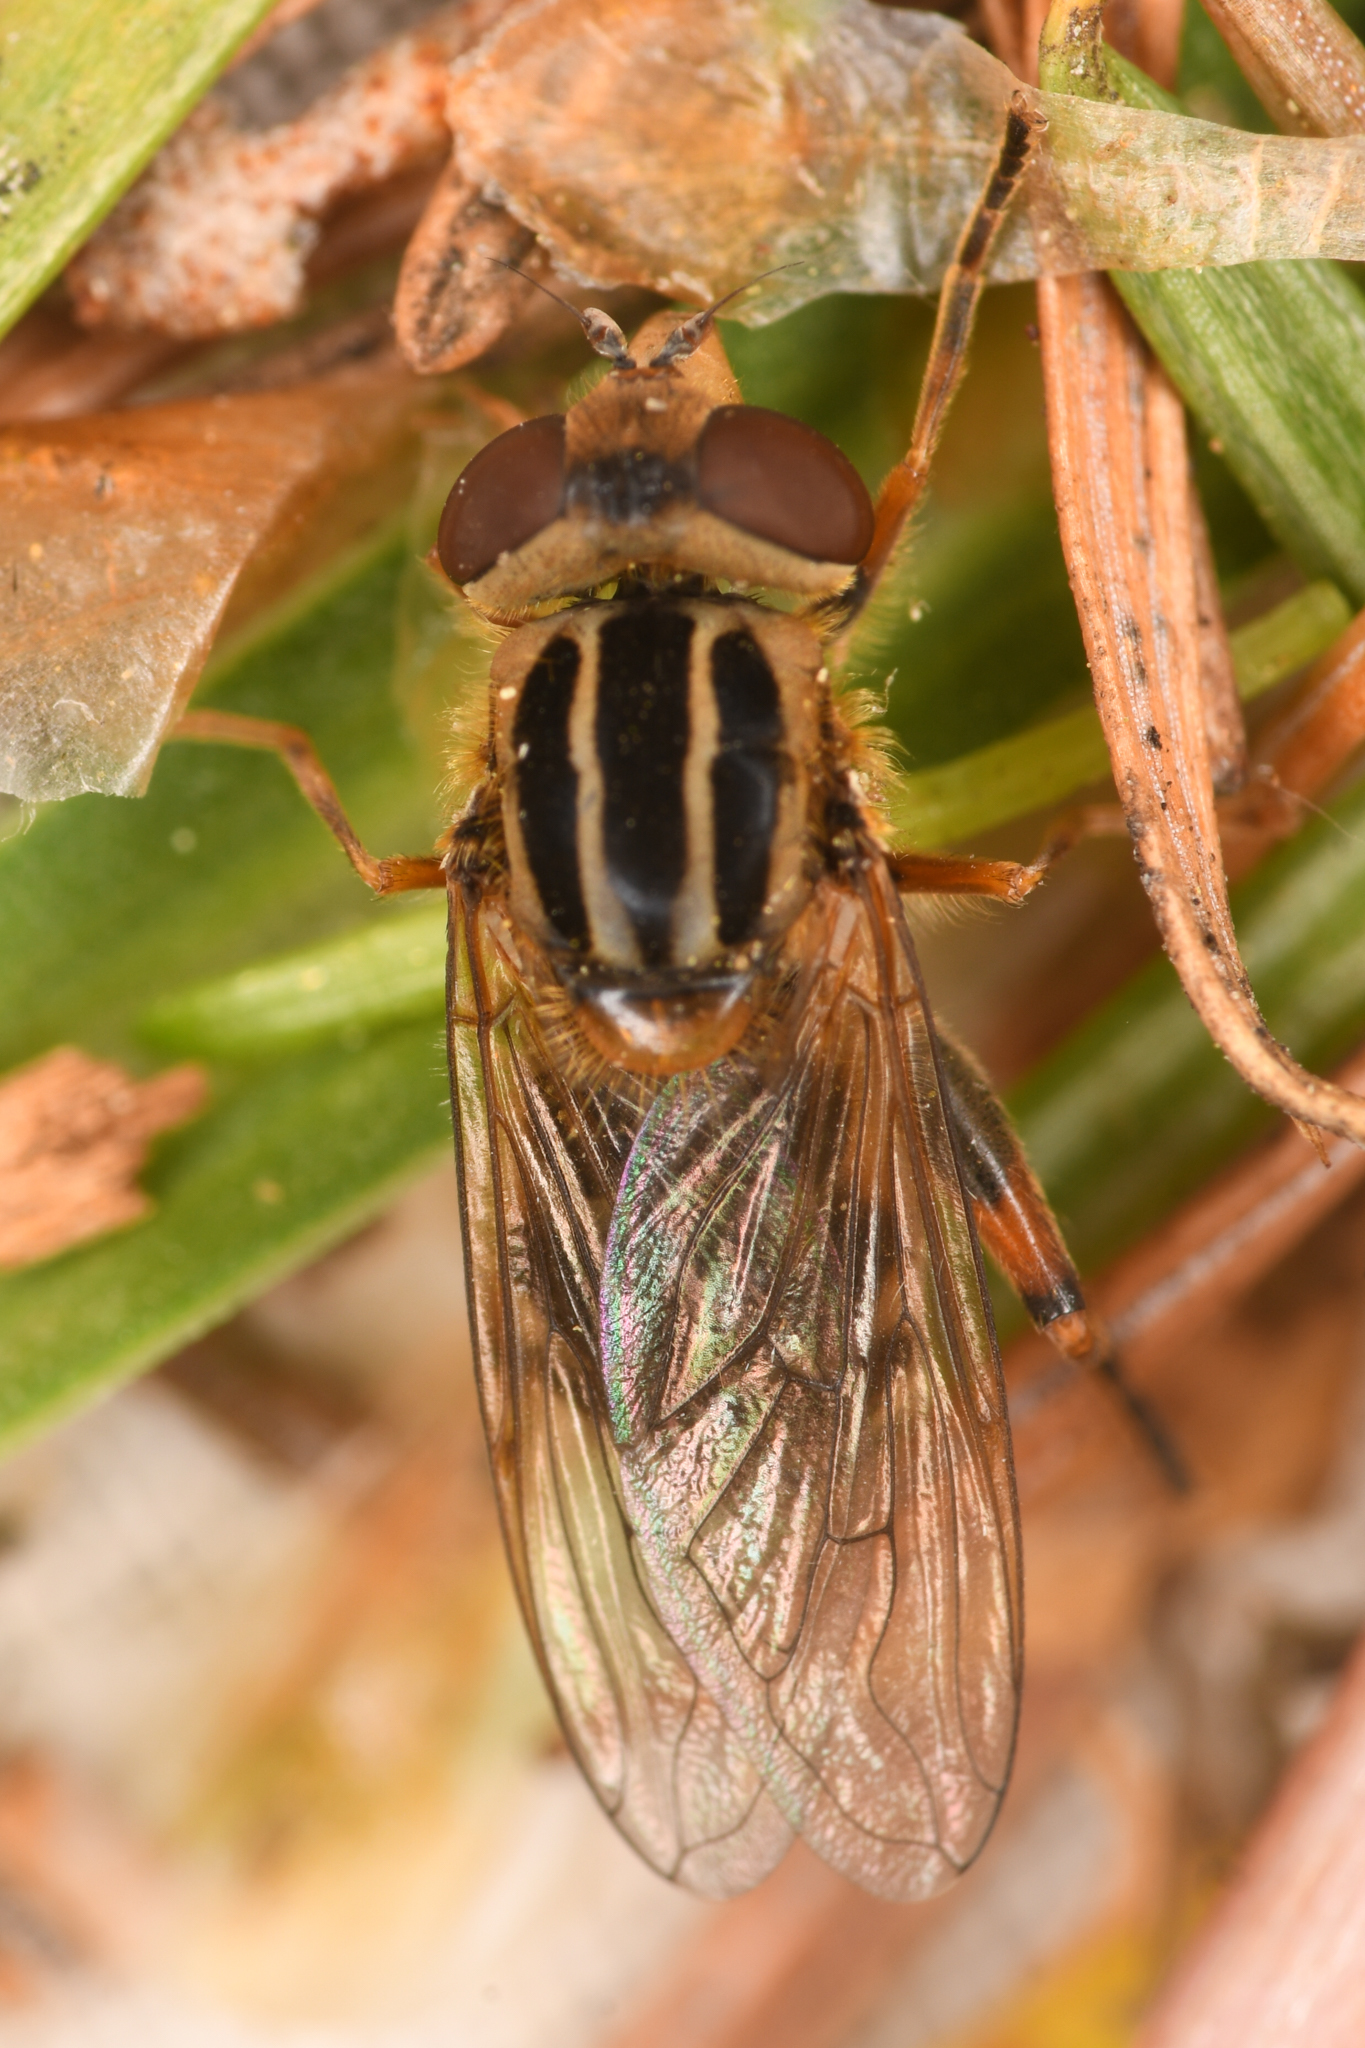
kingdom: Animalia
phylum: Arthropoda
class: Insecta
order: Diptera
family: Syrphidae
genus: Eurimyia
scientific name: Eurimyia stipatus
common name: Long-nosed swamp fly
